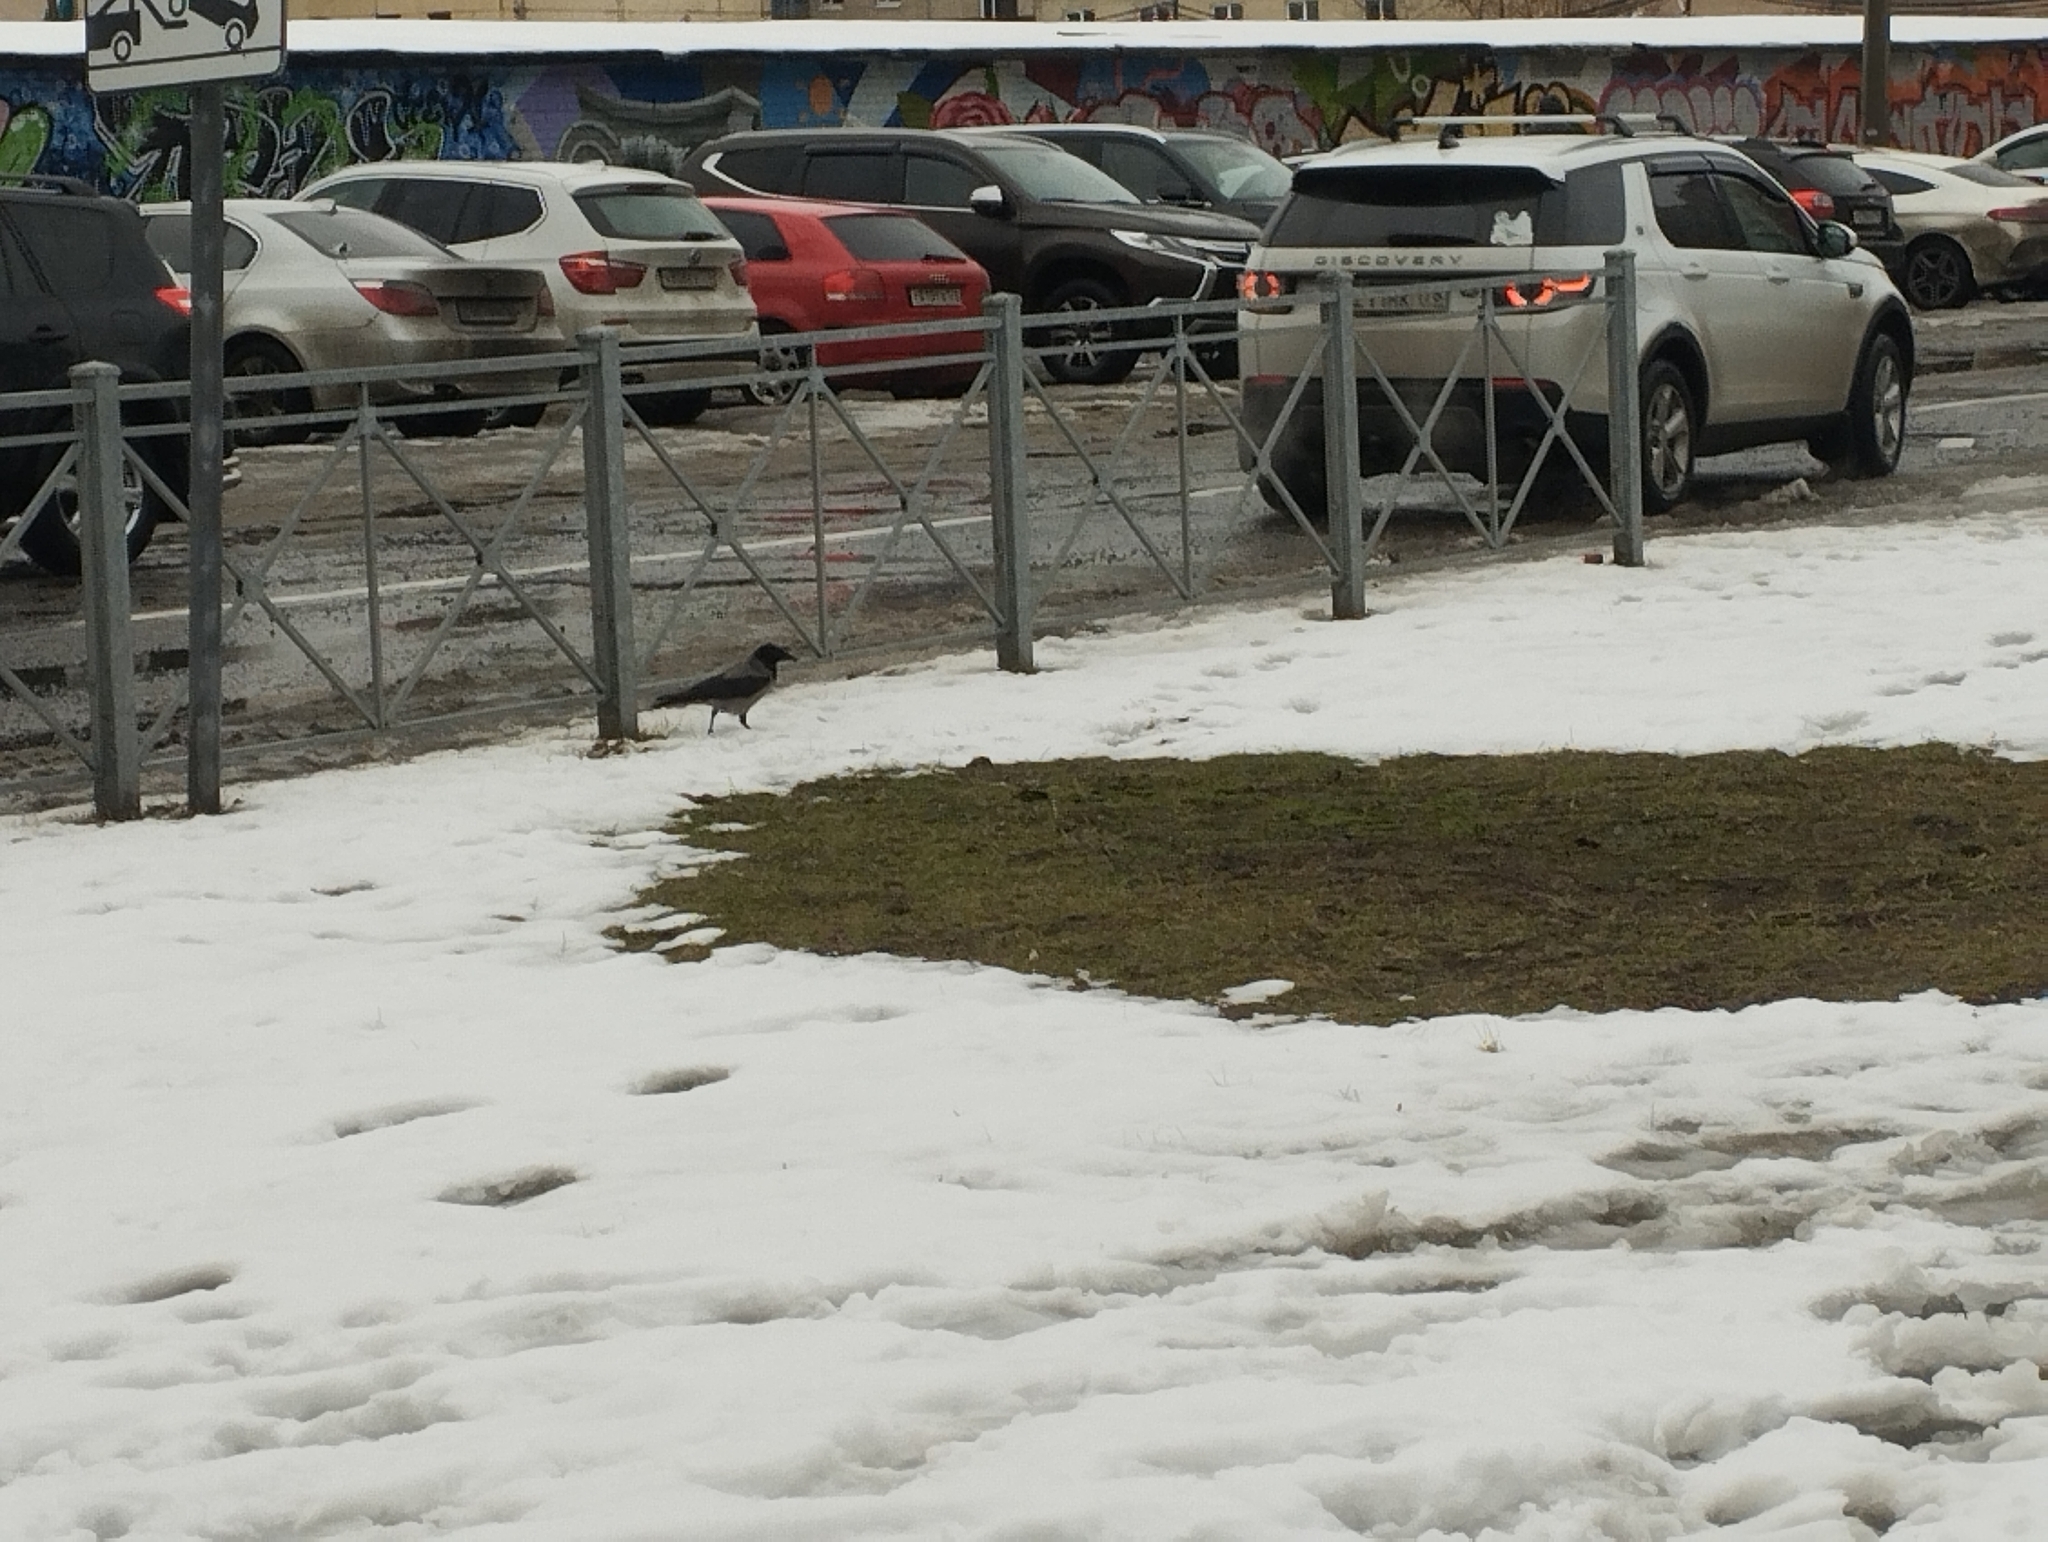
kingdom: Animalia
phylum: Chordata
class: Aves
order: Passeriformes
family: Corvidae
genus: Corvus
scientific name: Corvus cornix
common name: Hooded crow
